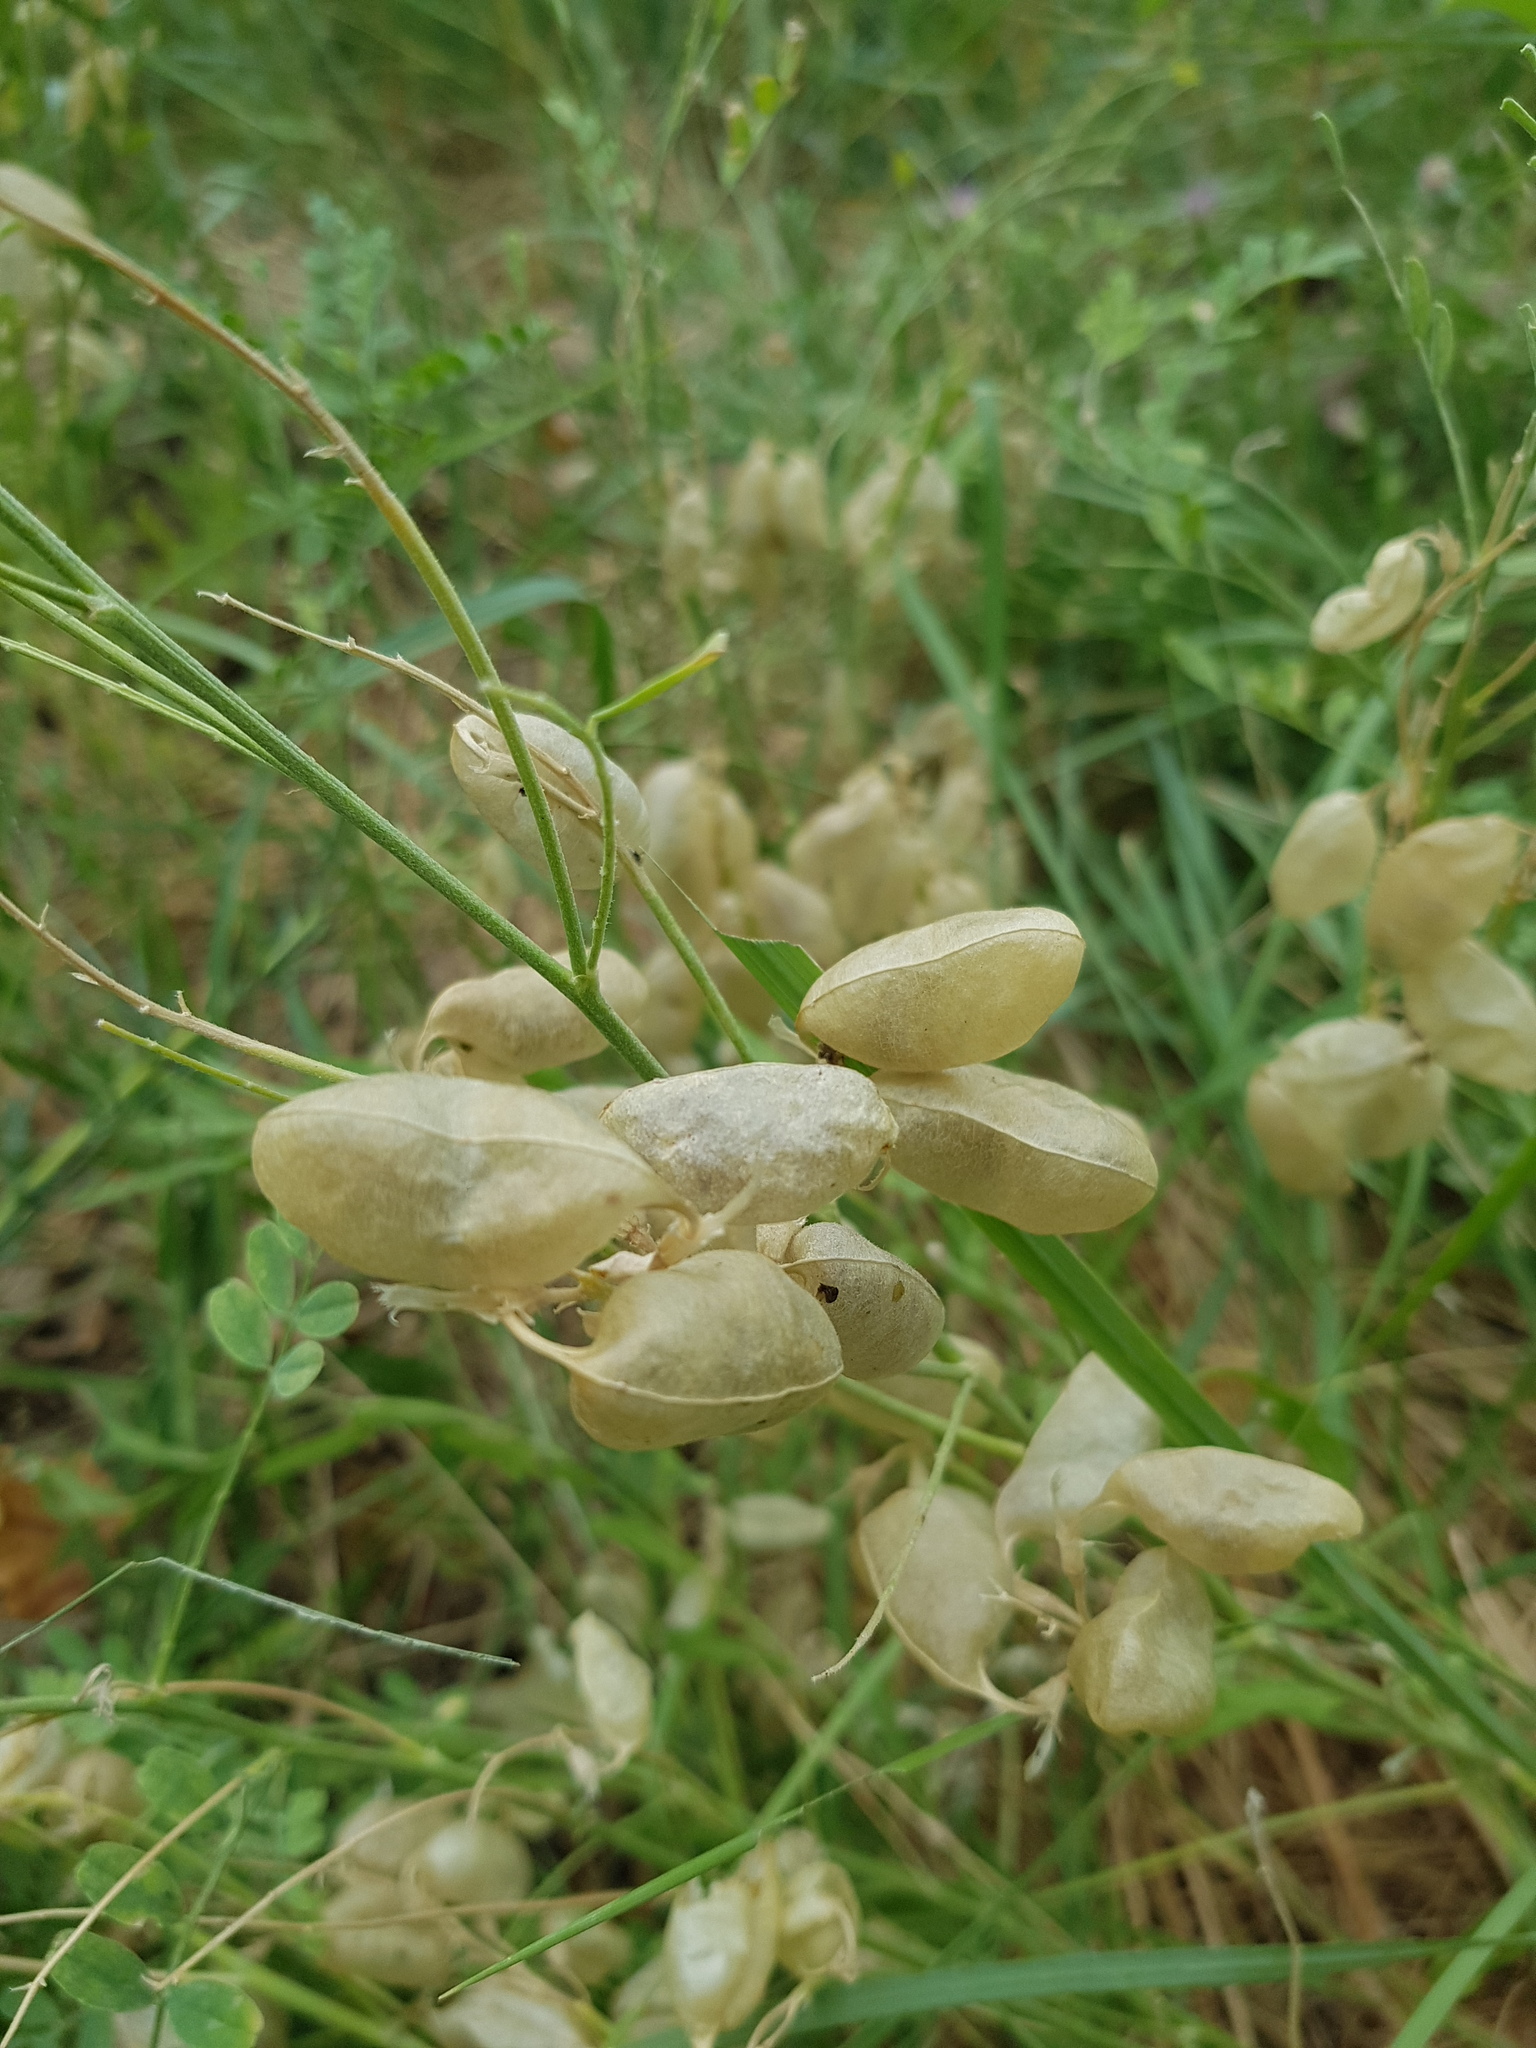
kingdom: Plantae
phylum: Tracheophyta
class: Magnoliopsida
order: Fabales
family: Fabaceae
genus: Sphaerophysa
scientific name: Sphaerophysa salsula
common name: Alkali swainsonpea
